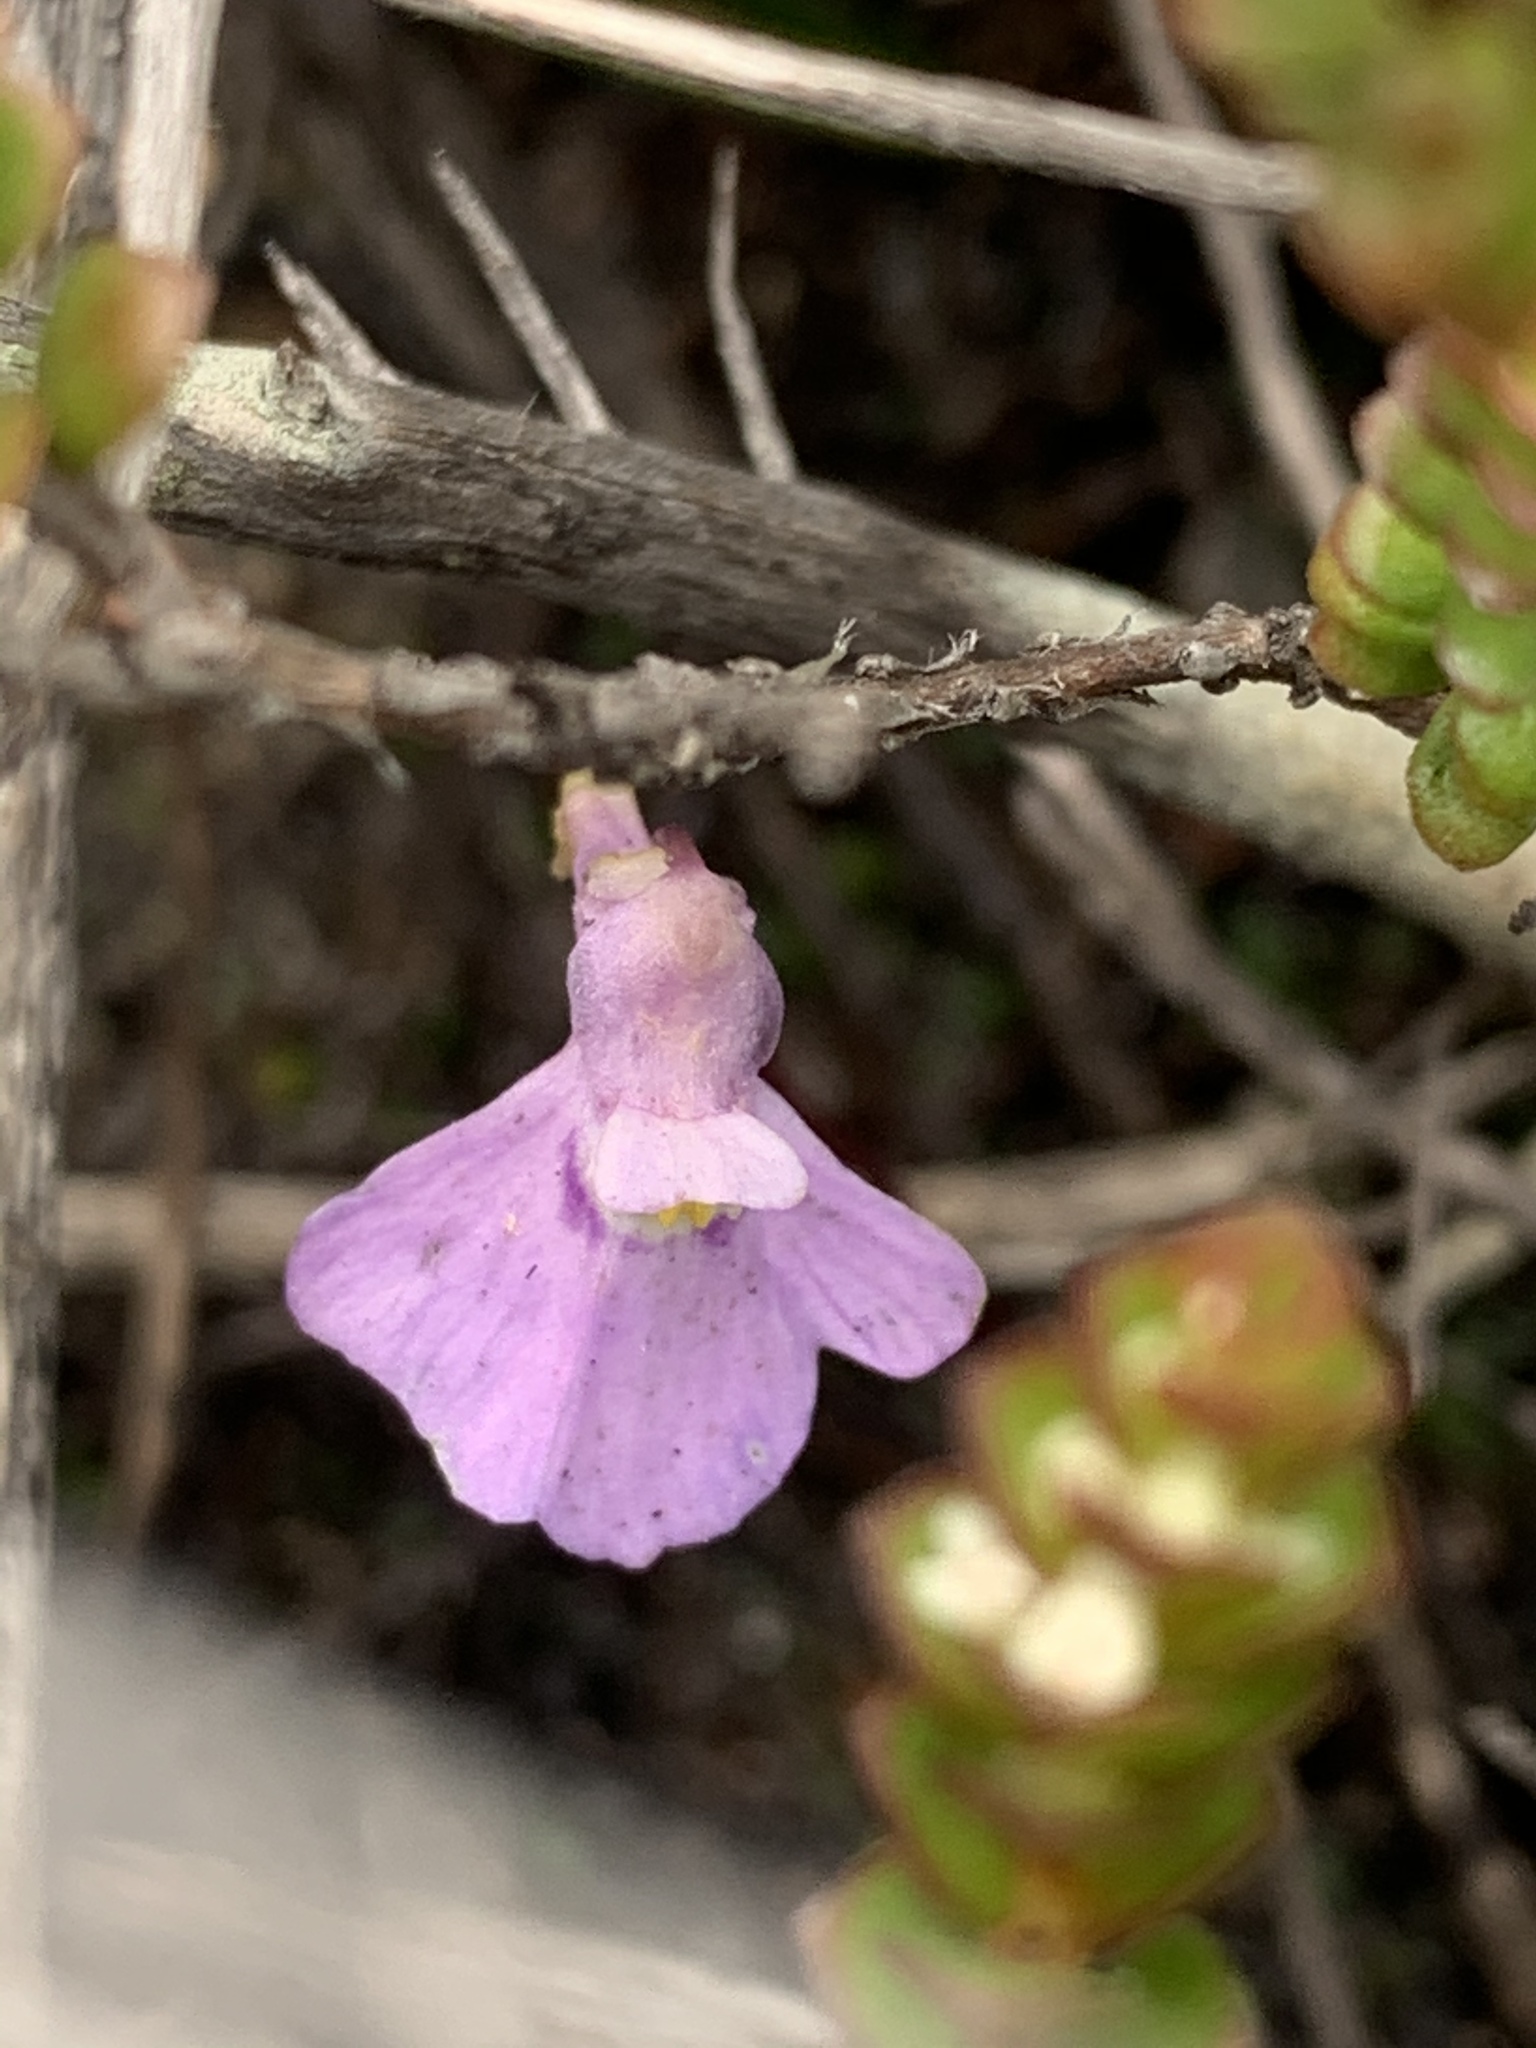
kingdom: Plantae
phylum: Tracheophyta
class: Magnoliopsida
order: Lamiales
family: Lentibulariaceae
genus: Utricularia
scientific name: Utricularia uniflora
